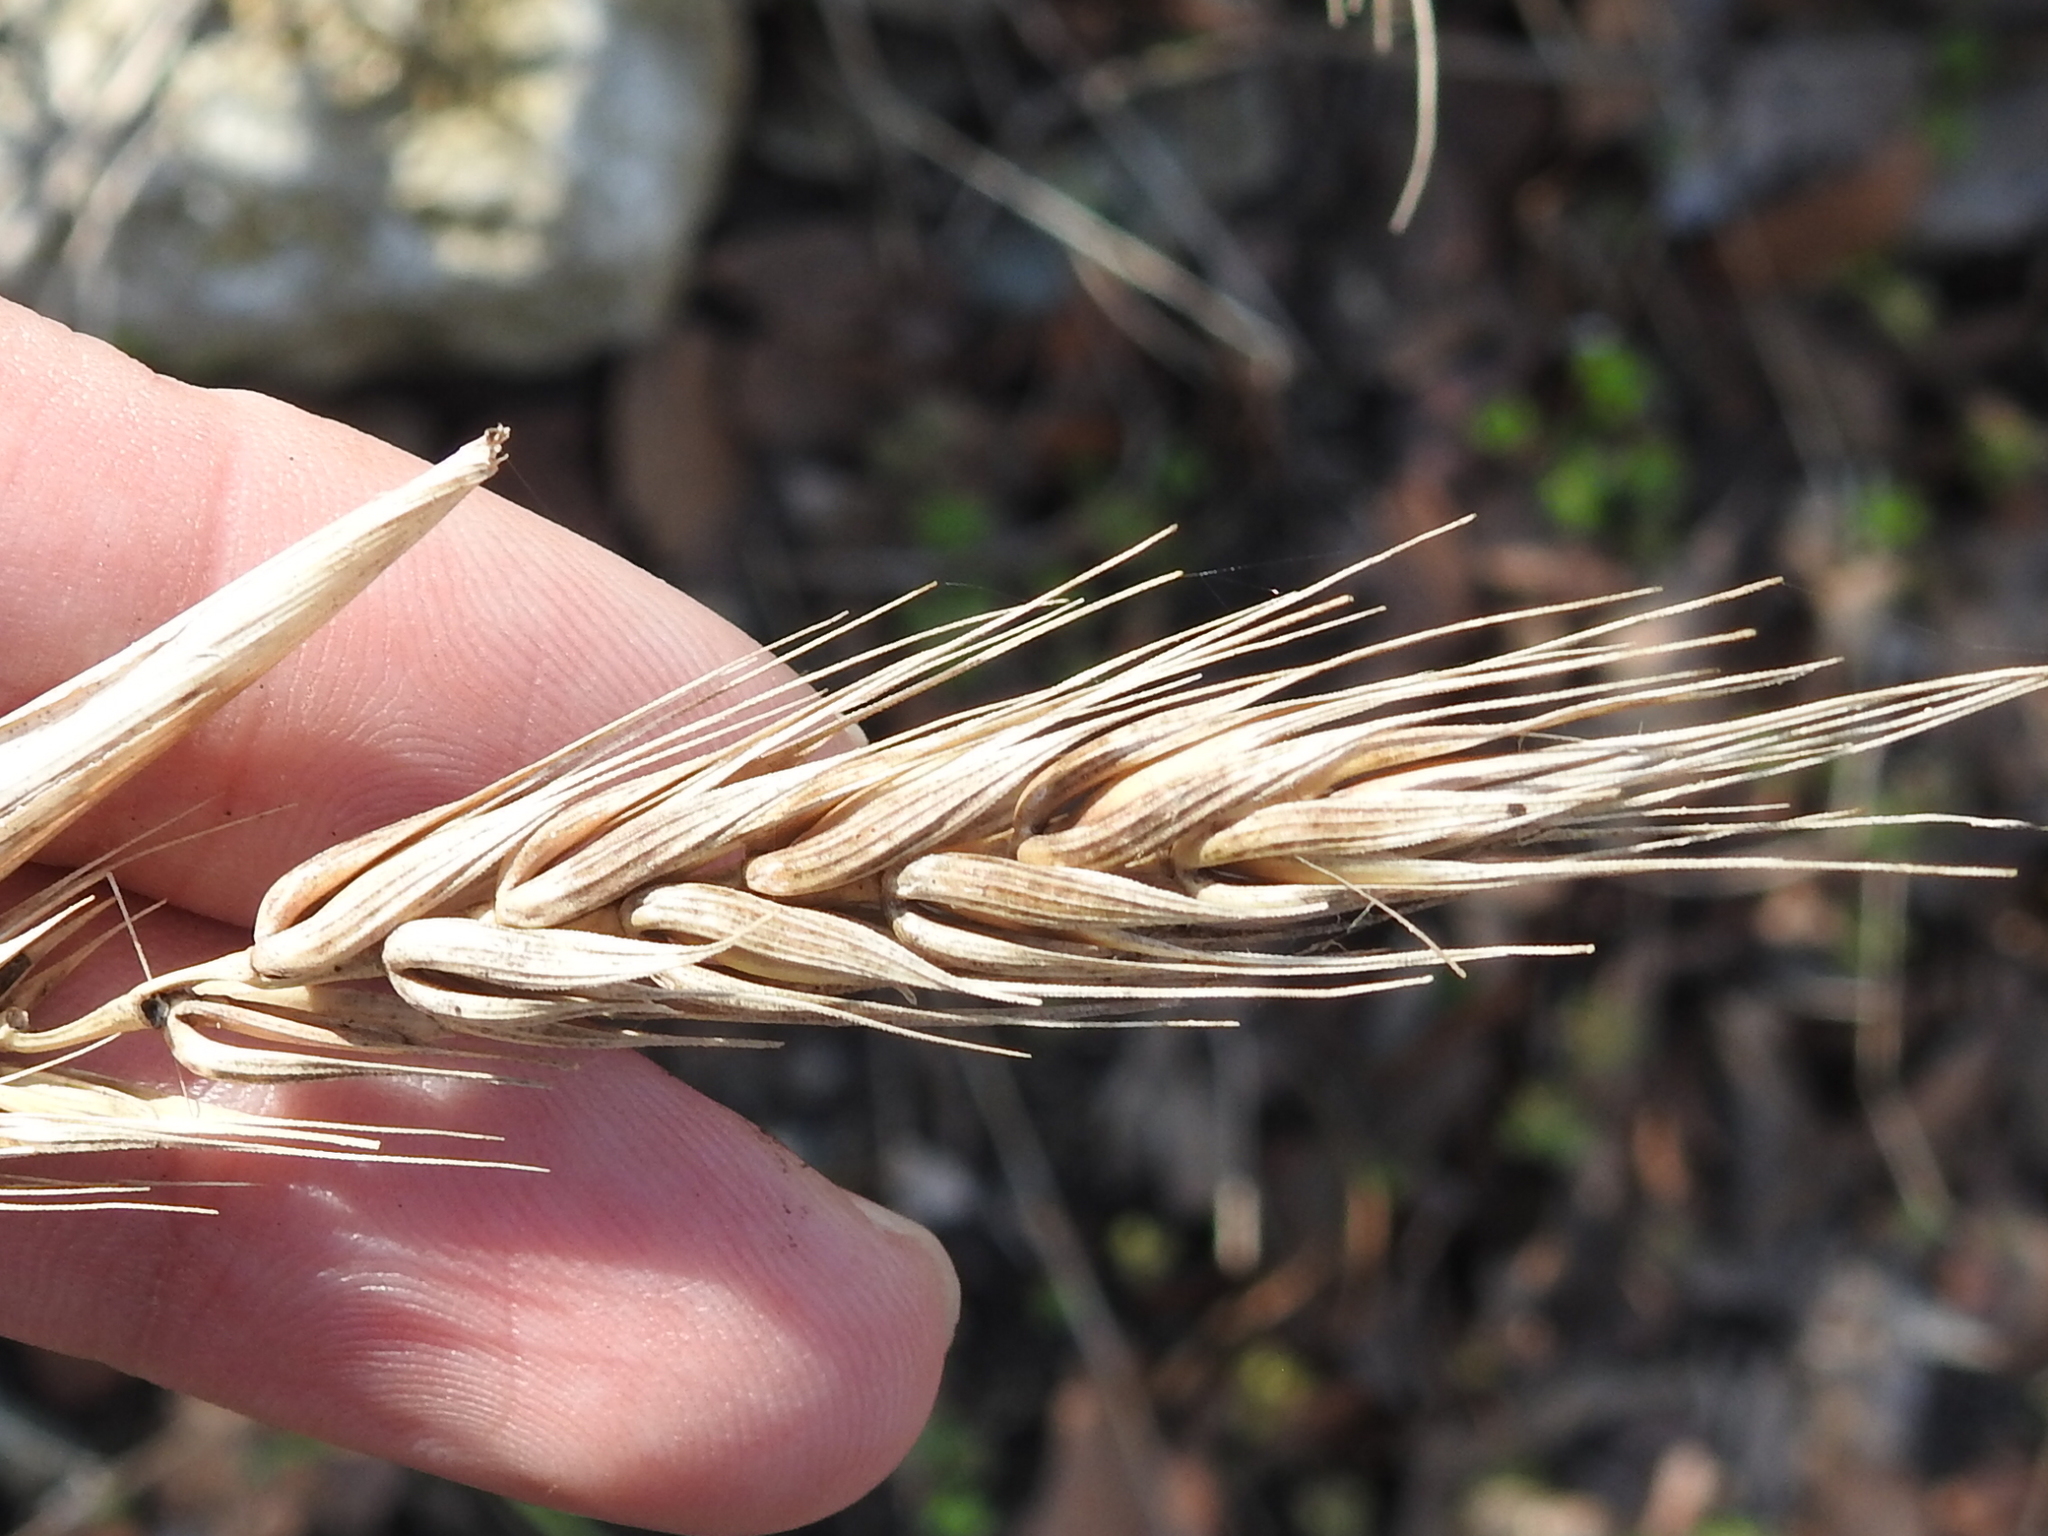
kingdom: Plantae
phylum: Tracheophyta
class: Liliopsida
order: Poales
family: Poaceae
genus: Elymus
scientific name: Elymus virginicus
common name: Common eastern wildrye
